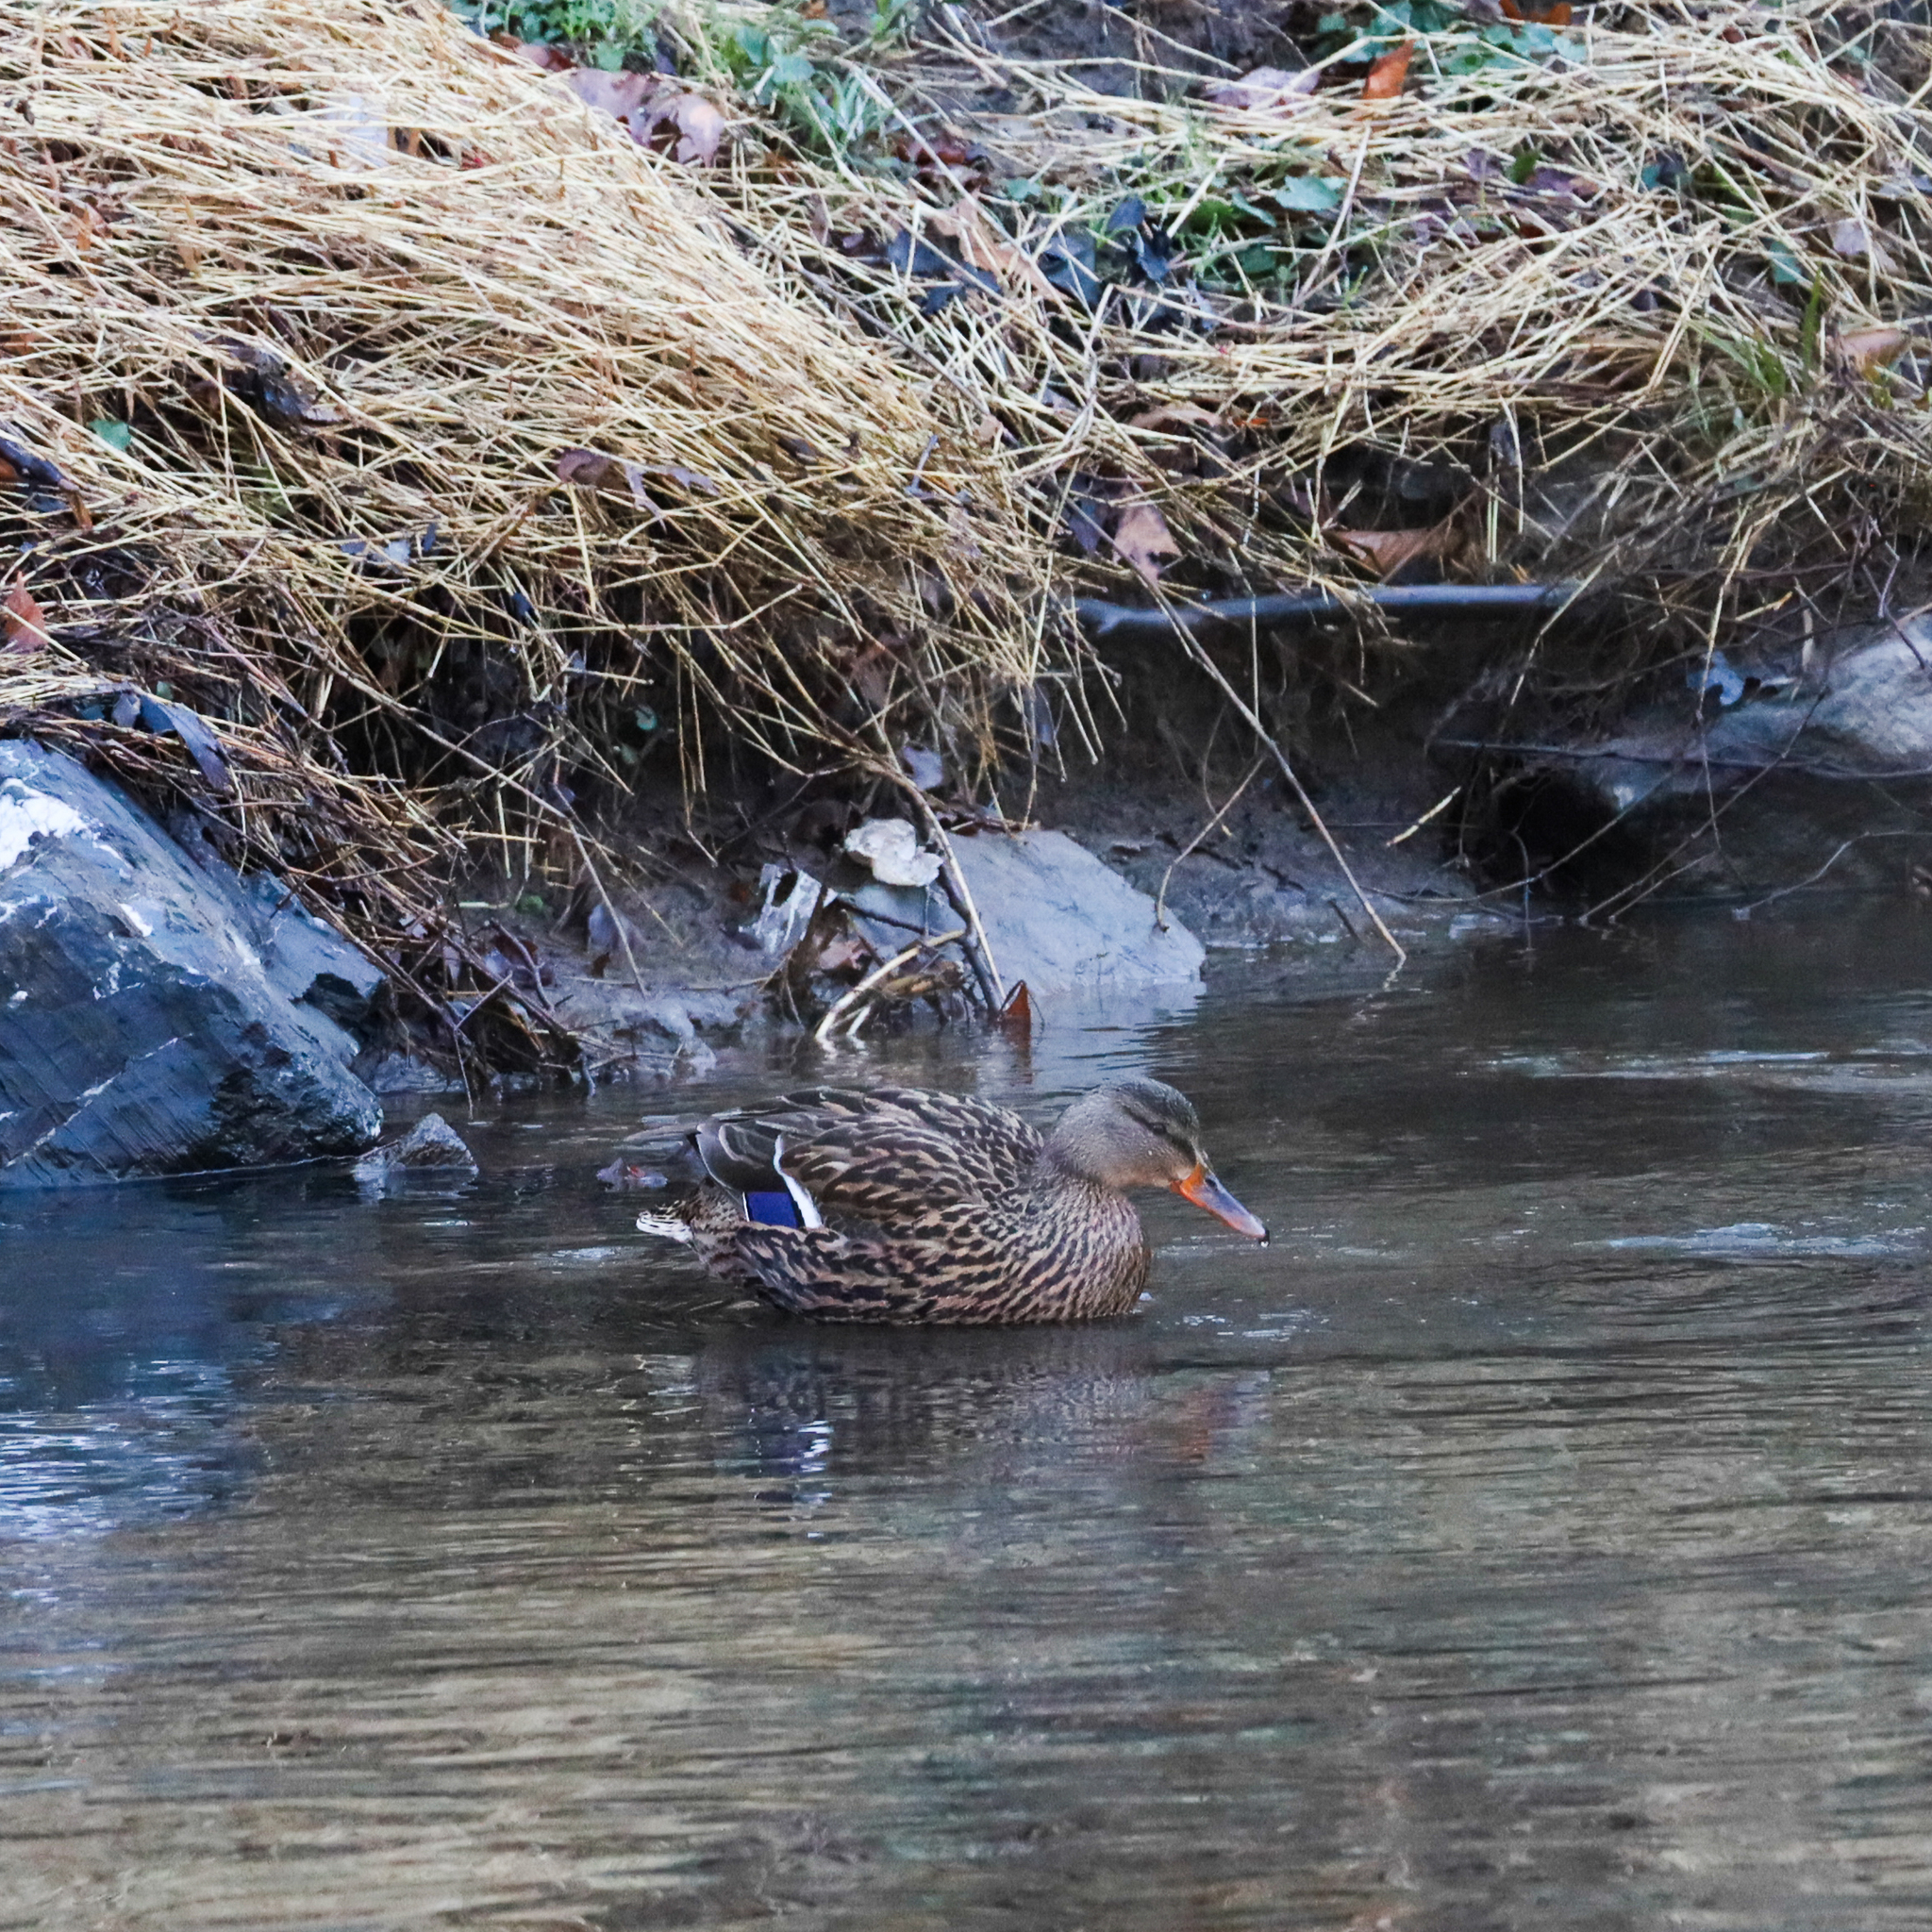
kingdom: Animalia
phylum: Chordata
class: Aves
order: Anseriformes
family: Anatidae
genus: Anas
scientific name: Anas platyrhynchos
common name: Mallard
